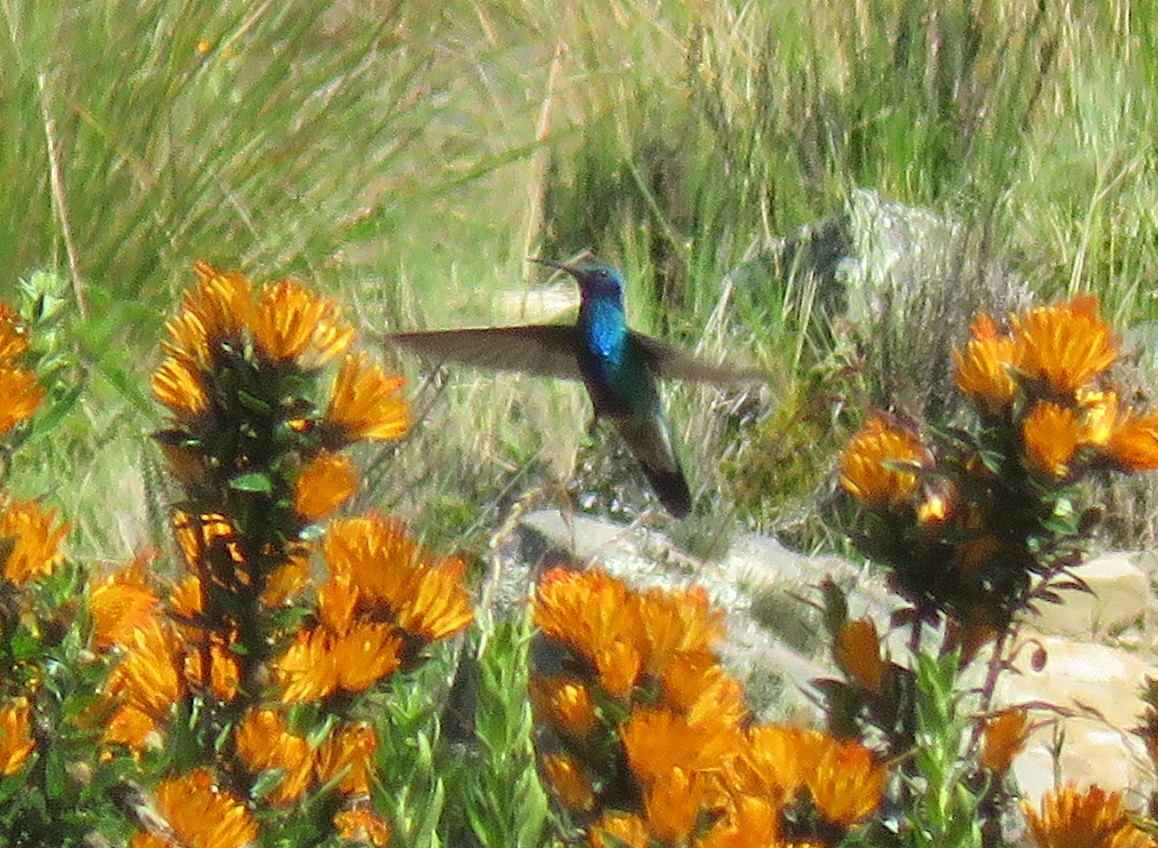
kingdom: Animalia
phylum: Chordata
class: Aves
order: Apodiformes
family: Trochilidae
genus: Colibri
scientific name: Colibri coruscans
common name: Sparkling violetear
